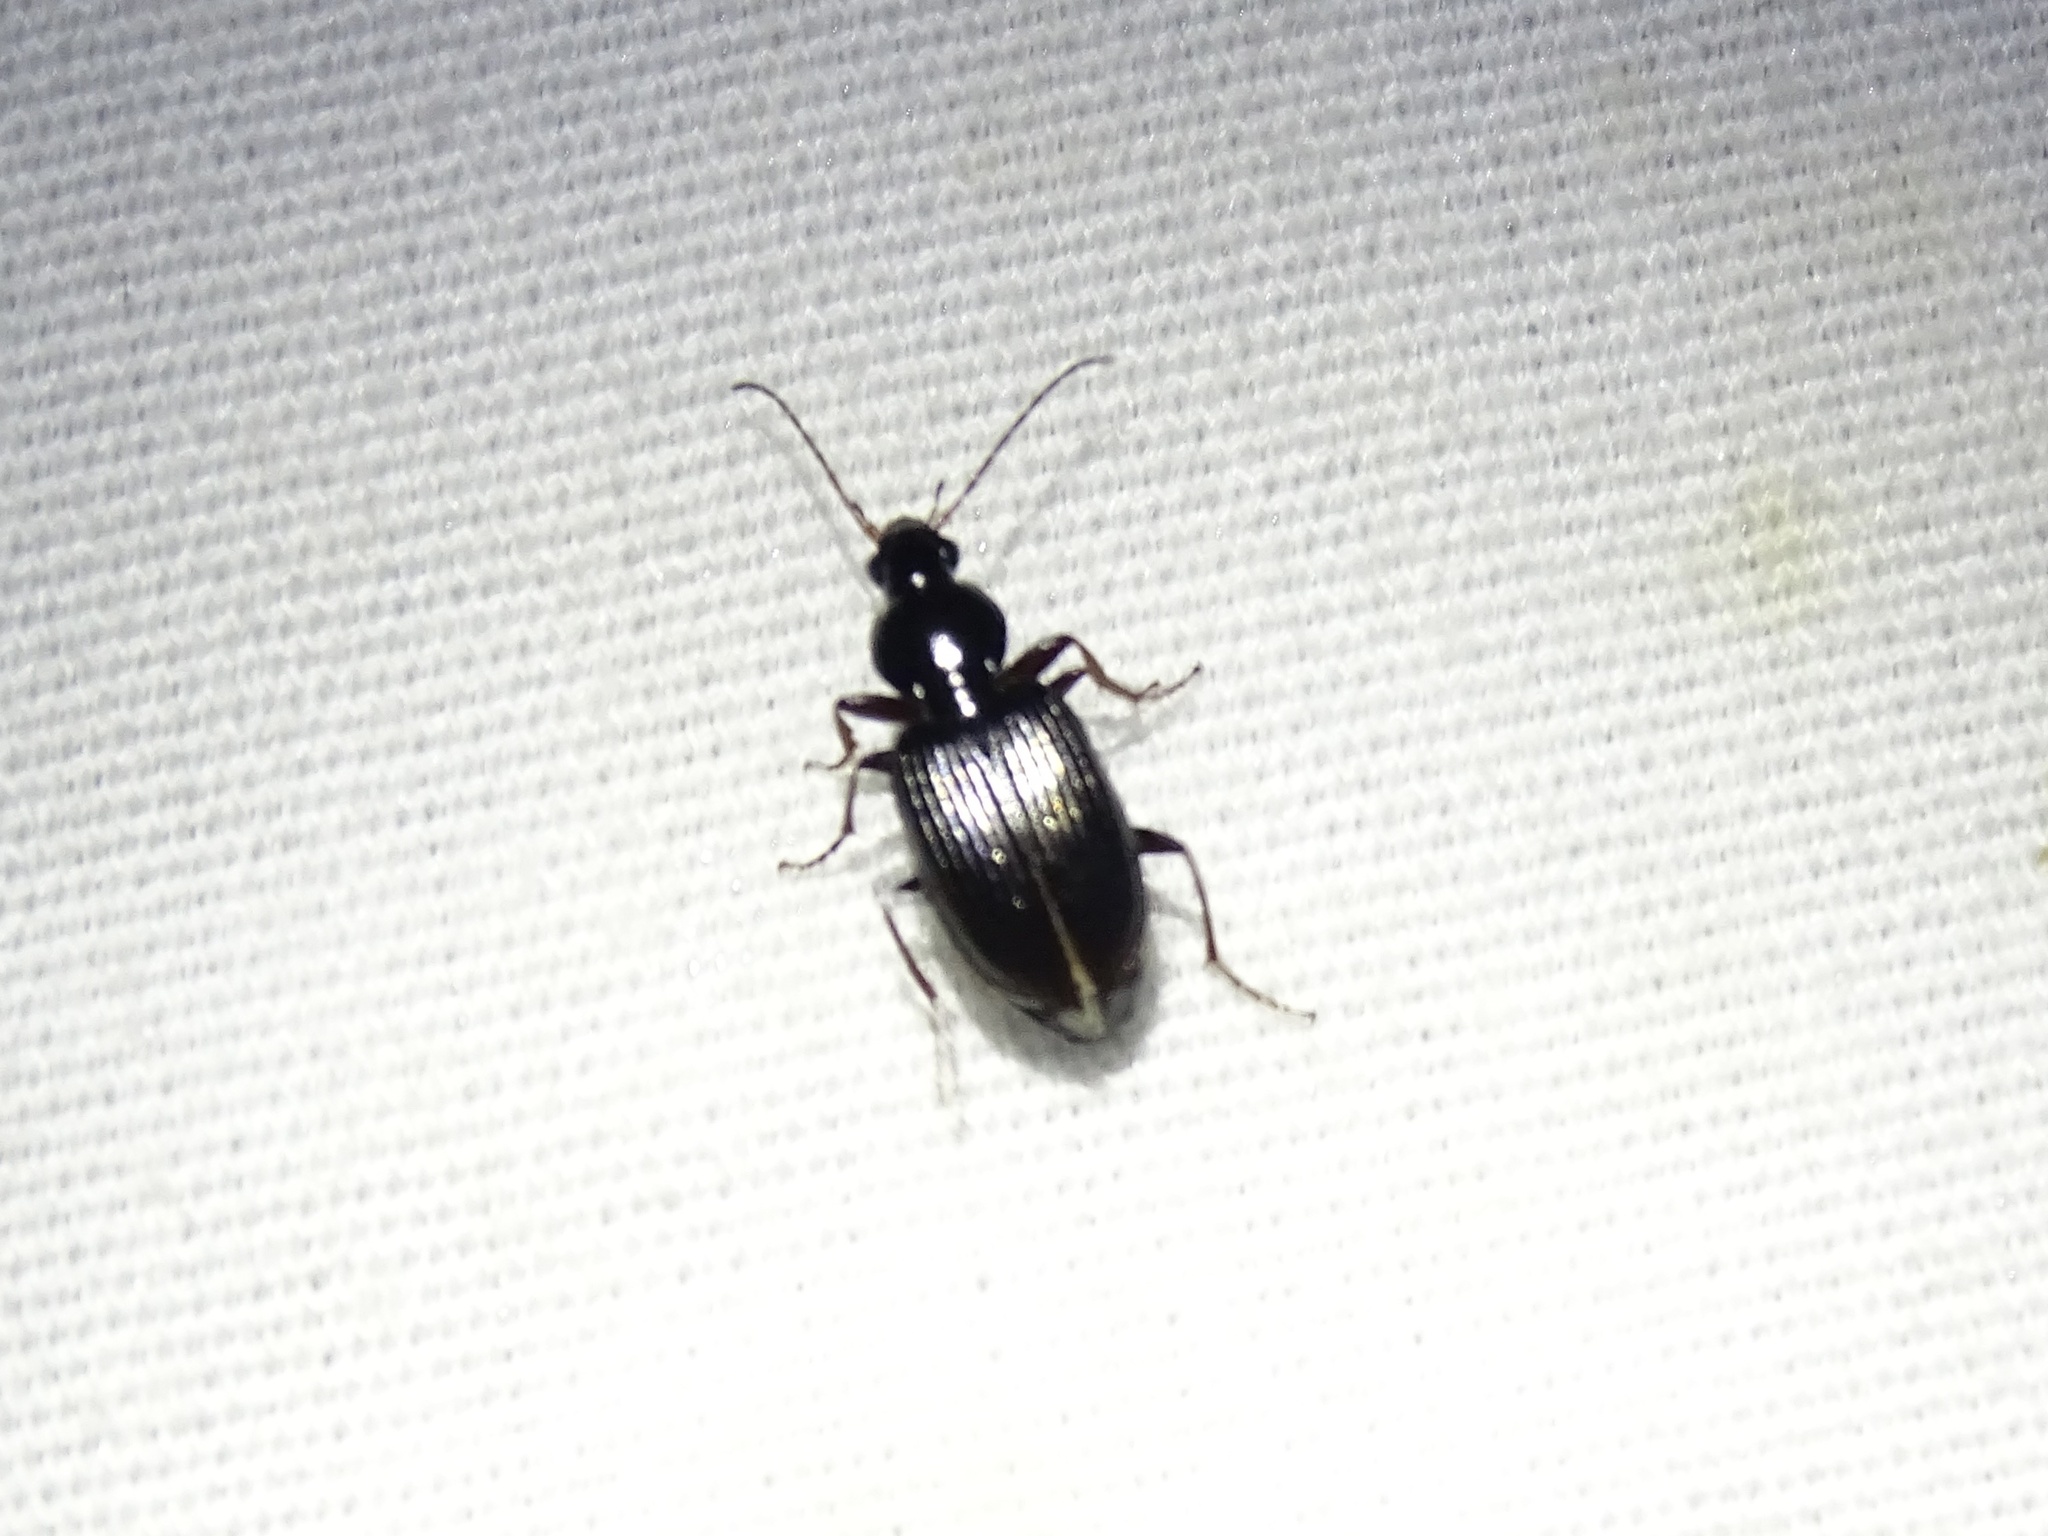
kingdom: Animalia
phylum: Arthropoda
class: Insecta
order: Coleoptera
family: Carabidae
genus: Agonum
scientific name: Agonum punctiforme
